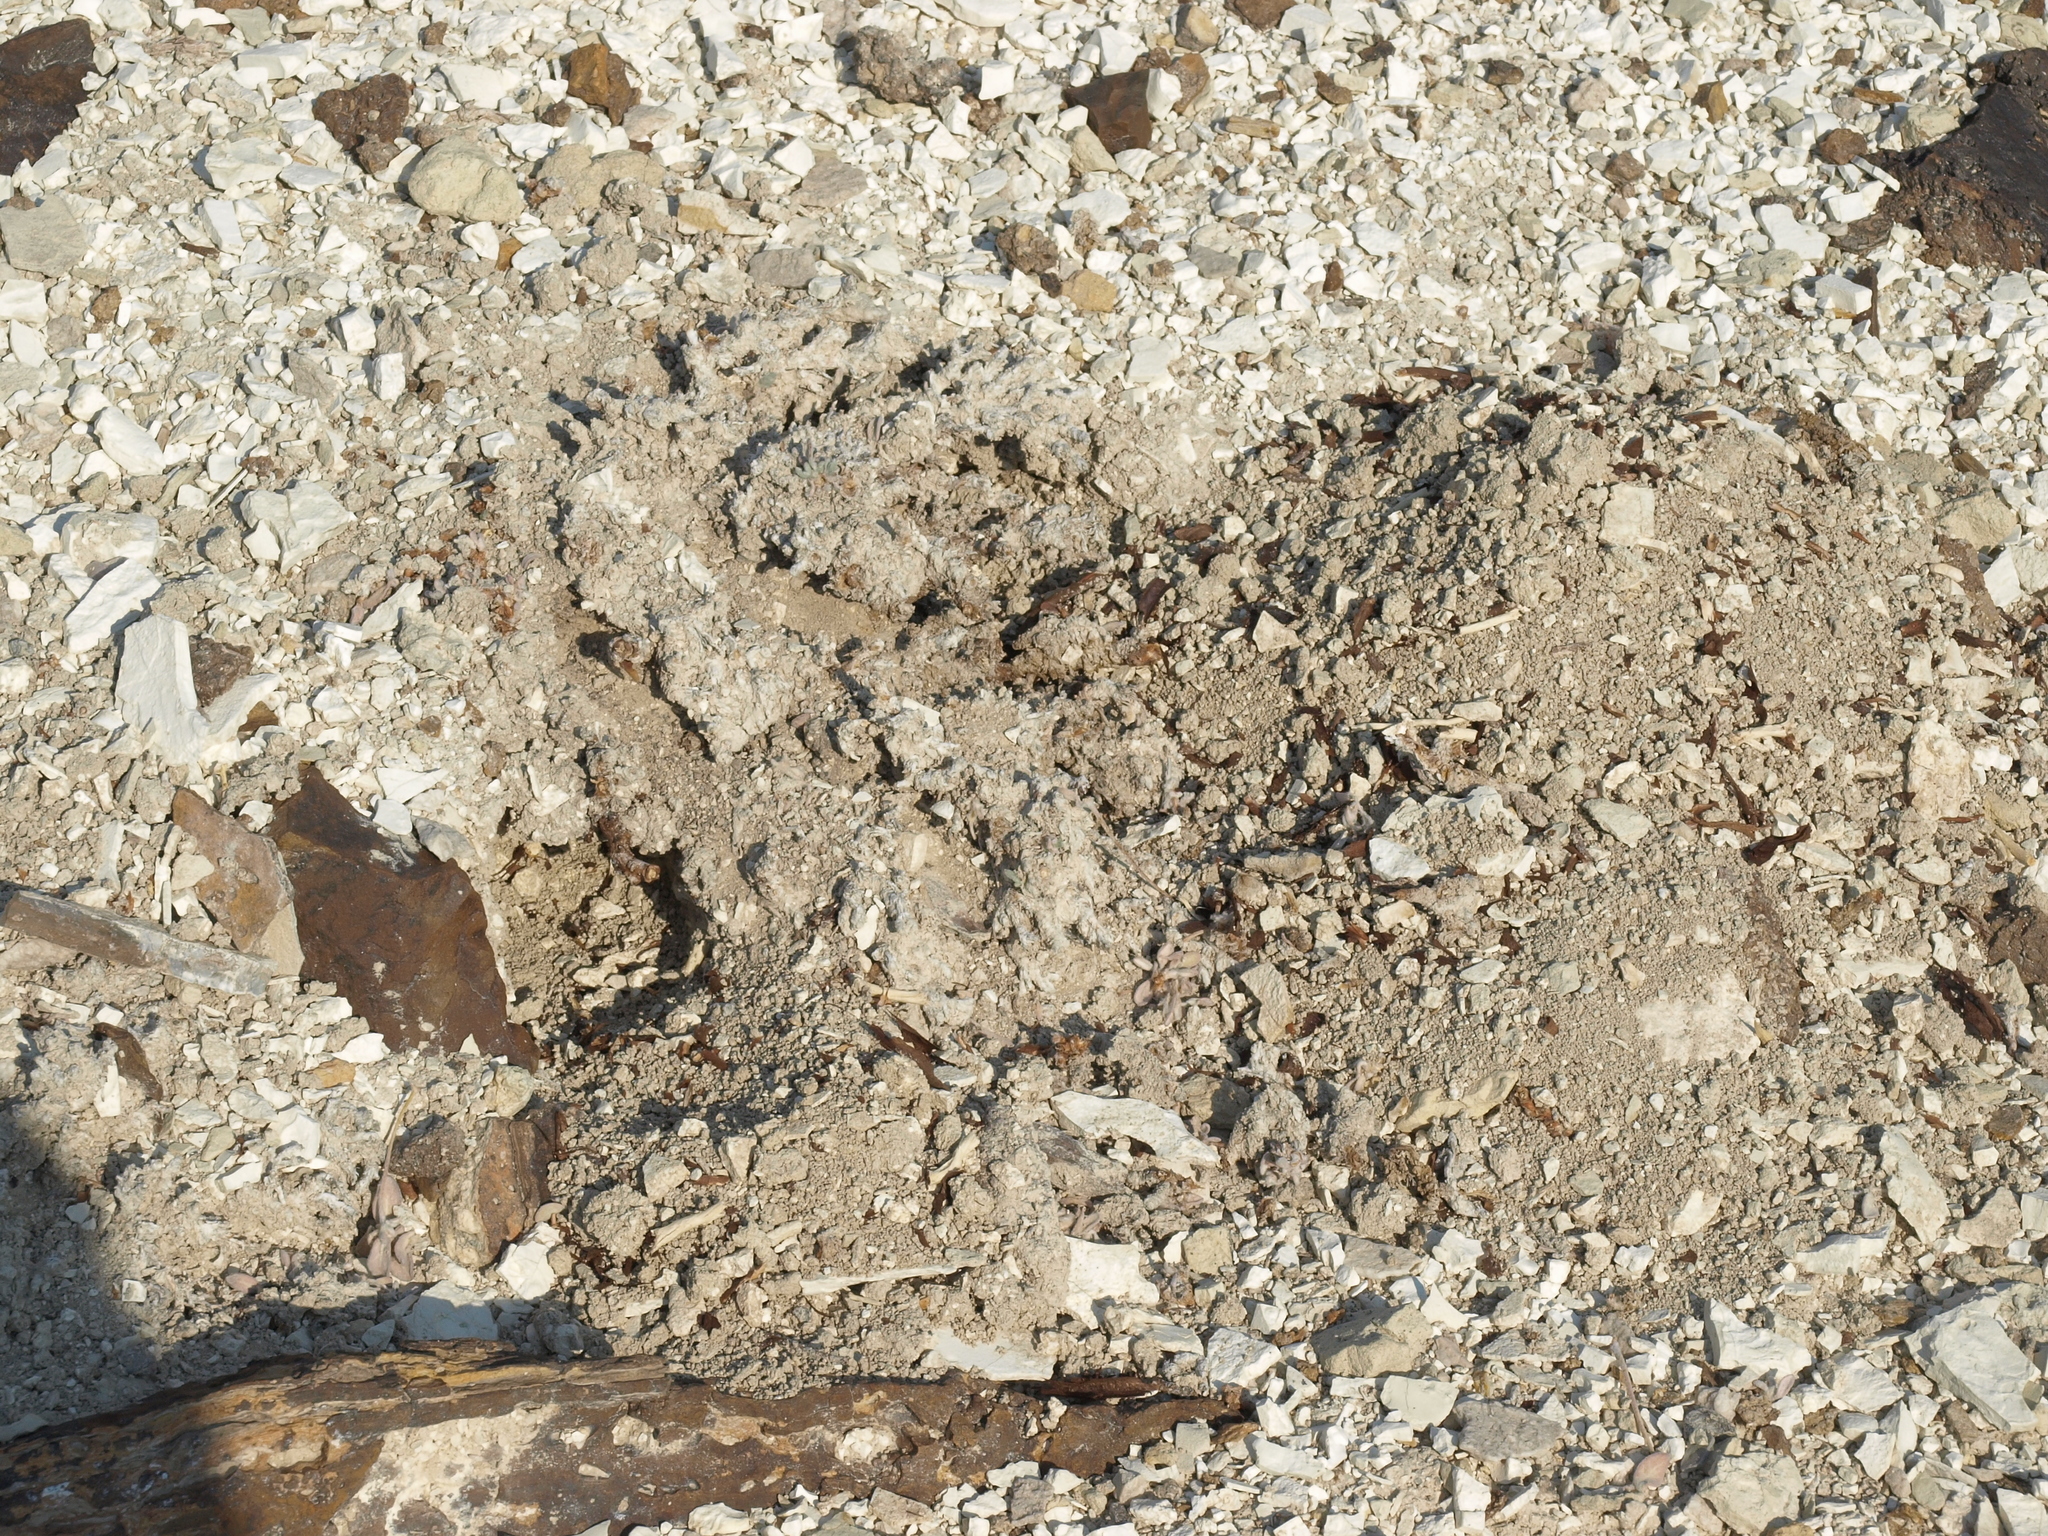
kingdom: Plantae
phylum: Tracheophyta
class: Magnoliopsida
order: Caryophyllales
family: Polygonaceae
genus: Eriogonum
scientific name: Eriogonum tiehmii
